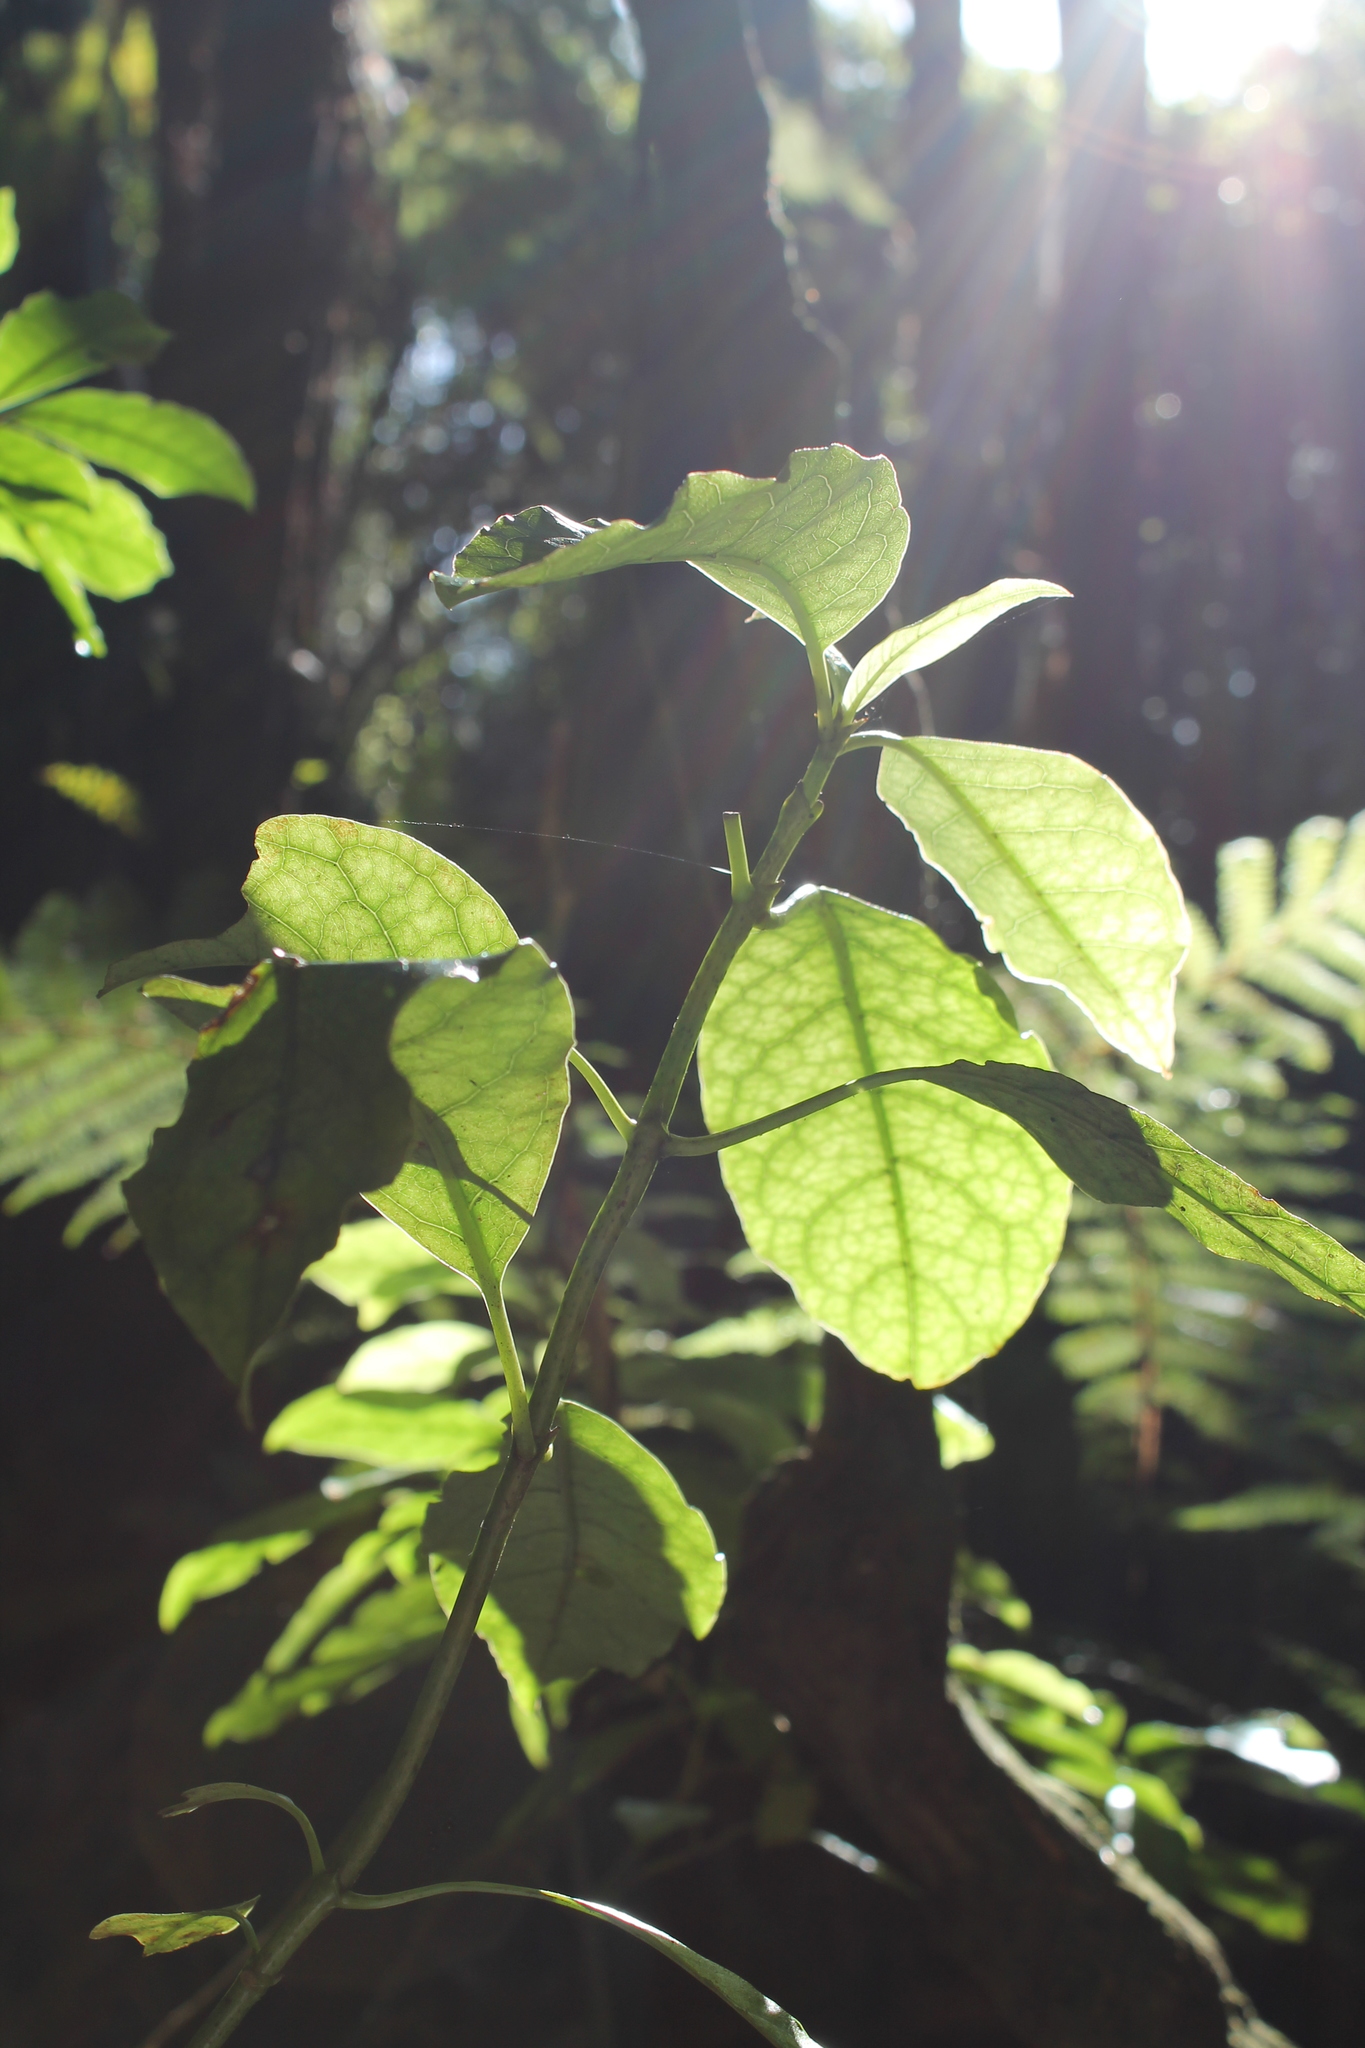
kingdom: Plantae
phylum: Tracheophyta
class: Magnoliopsida
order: Gentianales
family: Rubiaceae
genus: Coprosma
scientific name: Coprosma autumnalis
